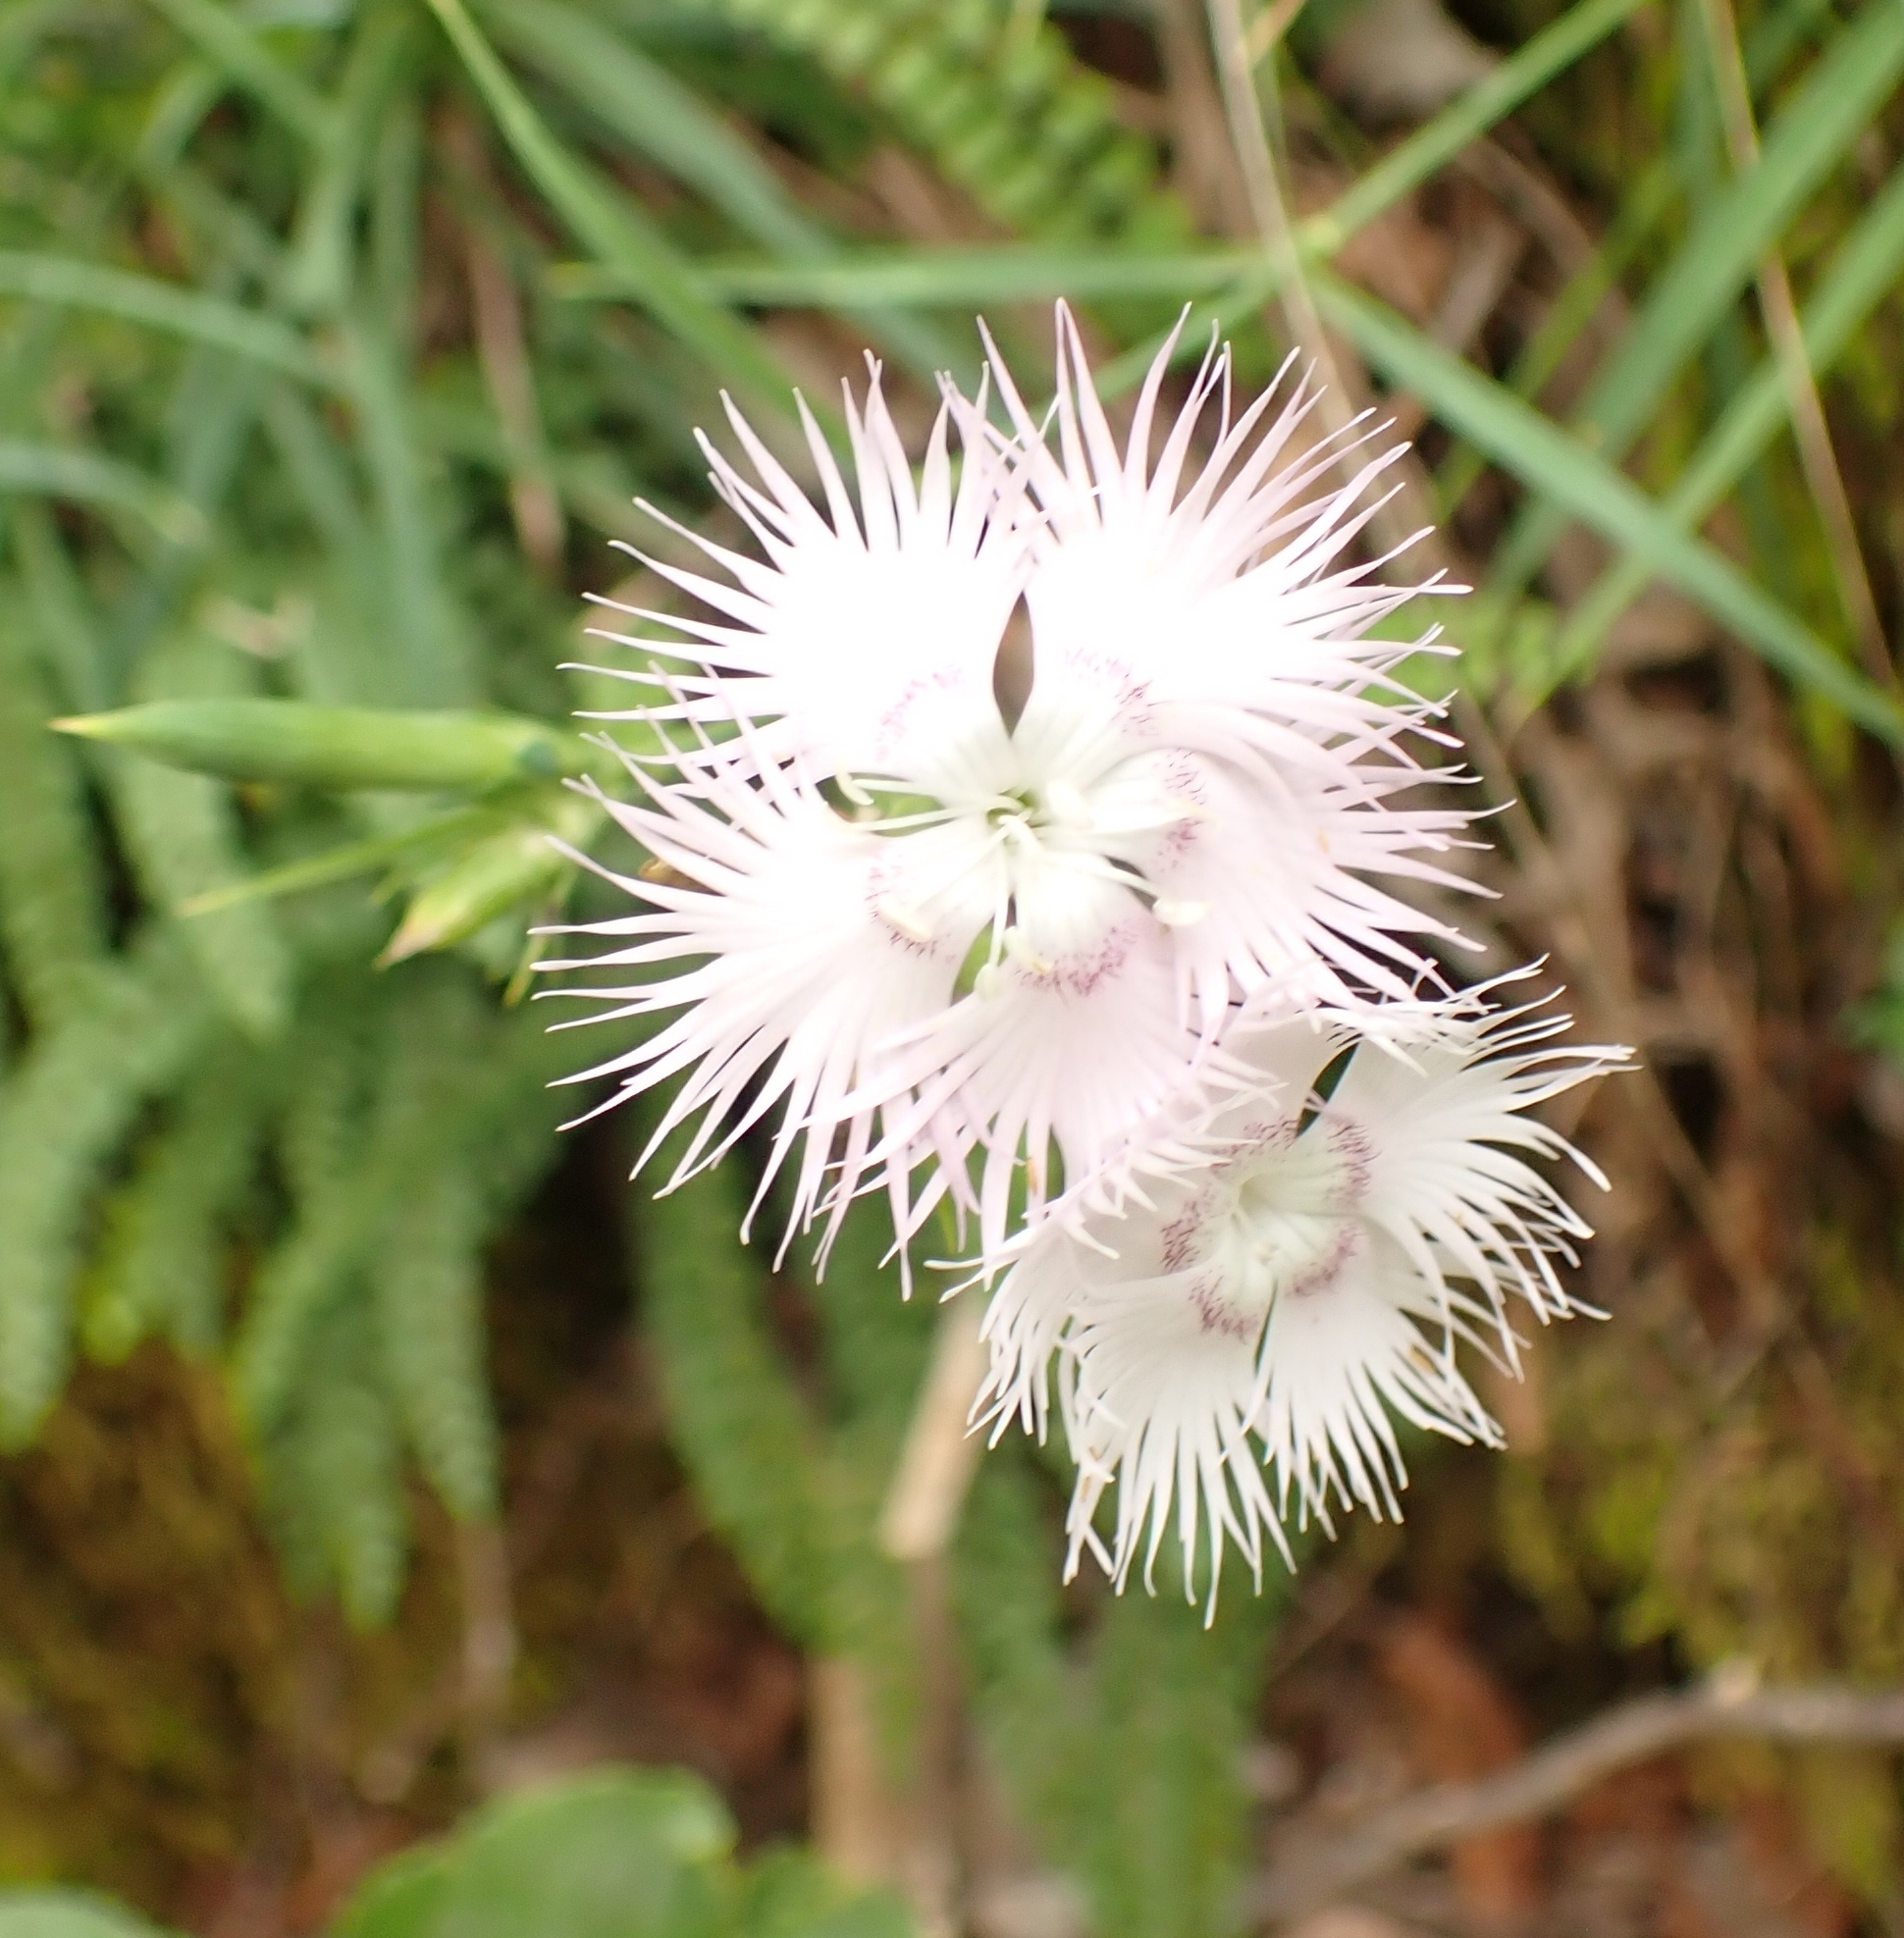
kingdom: Plantae
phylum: Tracheophyta
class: Magnoliopsida
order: Caryophyllales
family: Caryophyllaceae
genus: Dianthus
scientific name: Dianthus monspessulanus
